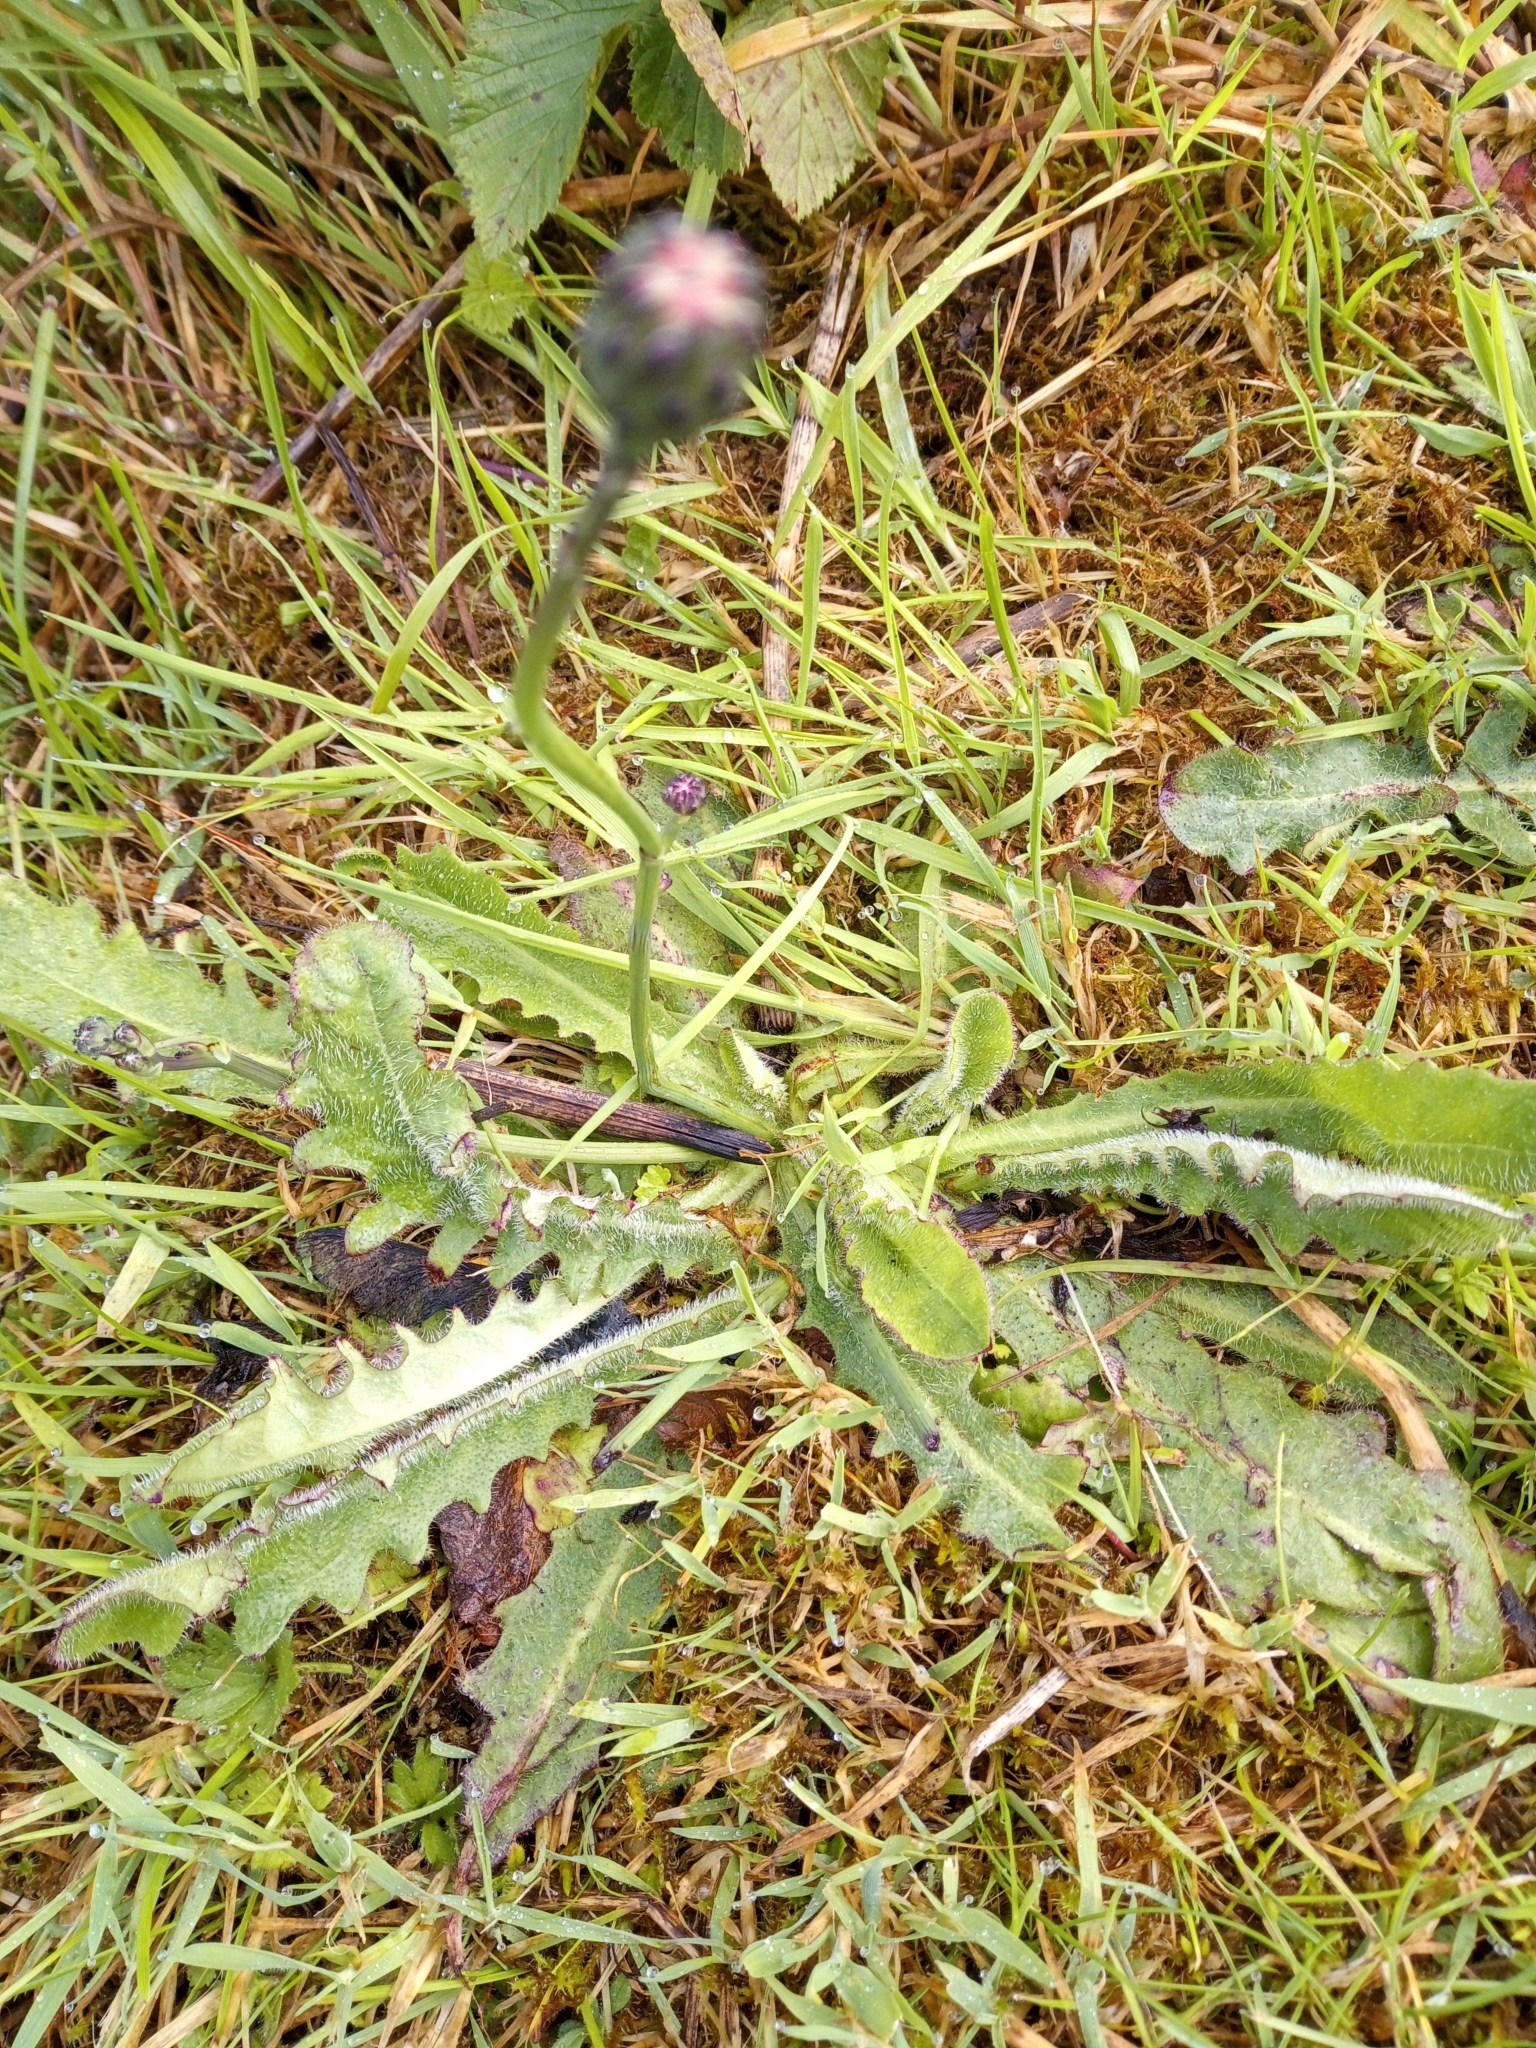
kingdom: Plantae
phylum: Tracheophyta
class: Magnoliopsida
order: Asterales
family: Asteraceae
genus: Hypochaeris
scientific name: Hypochaeris radicata
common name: Flatweed
